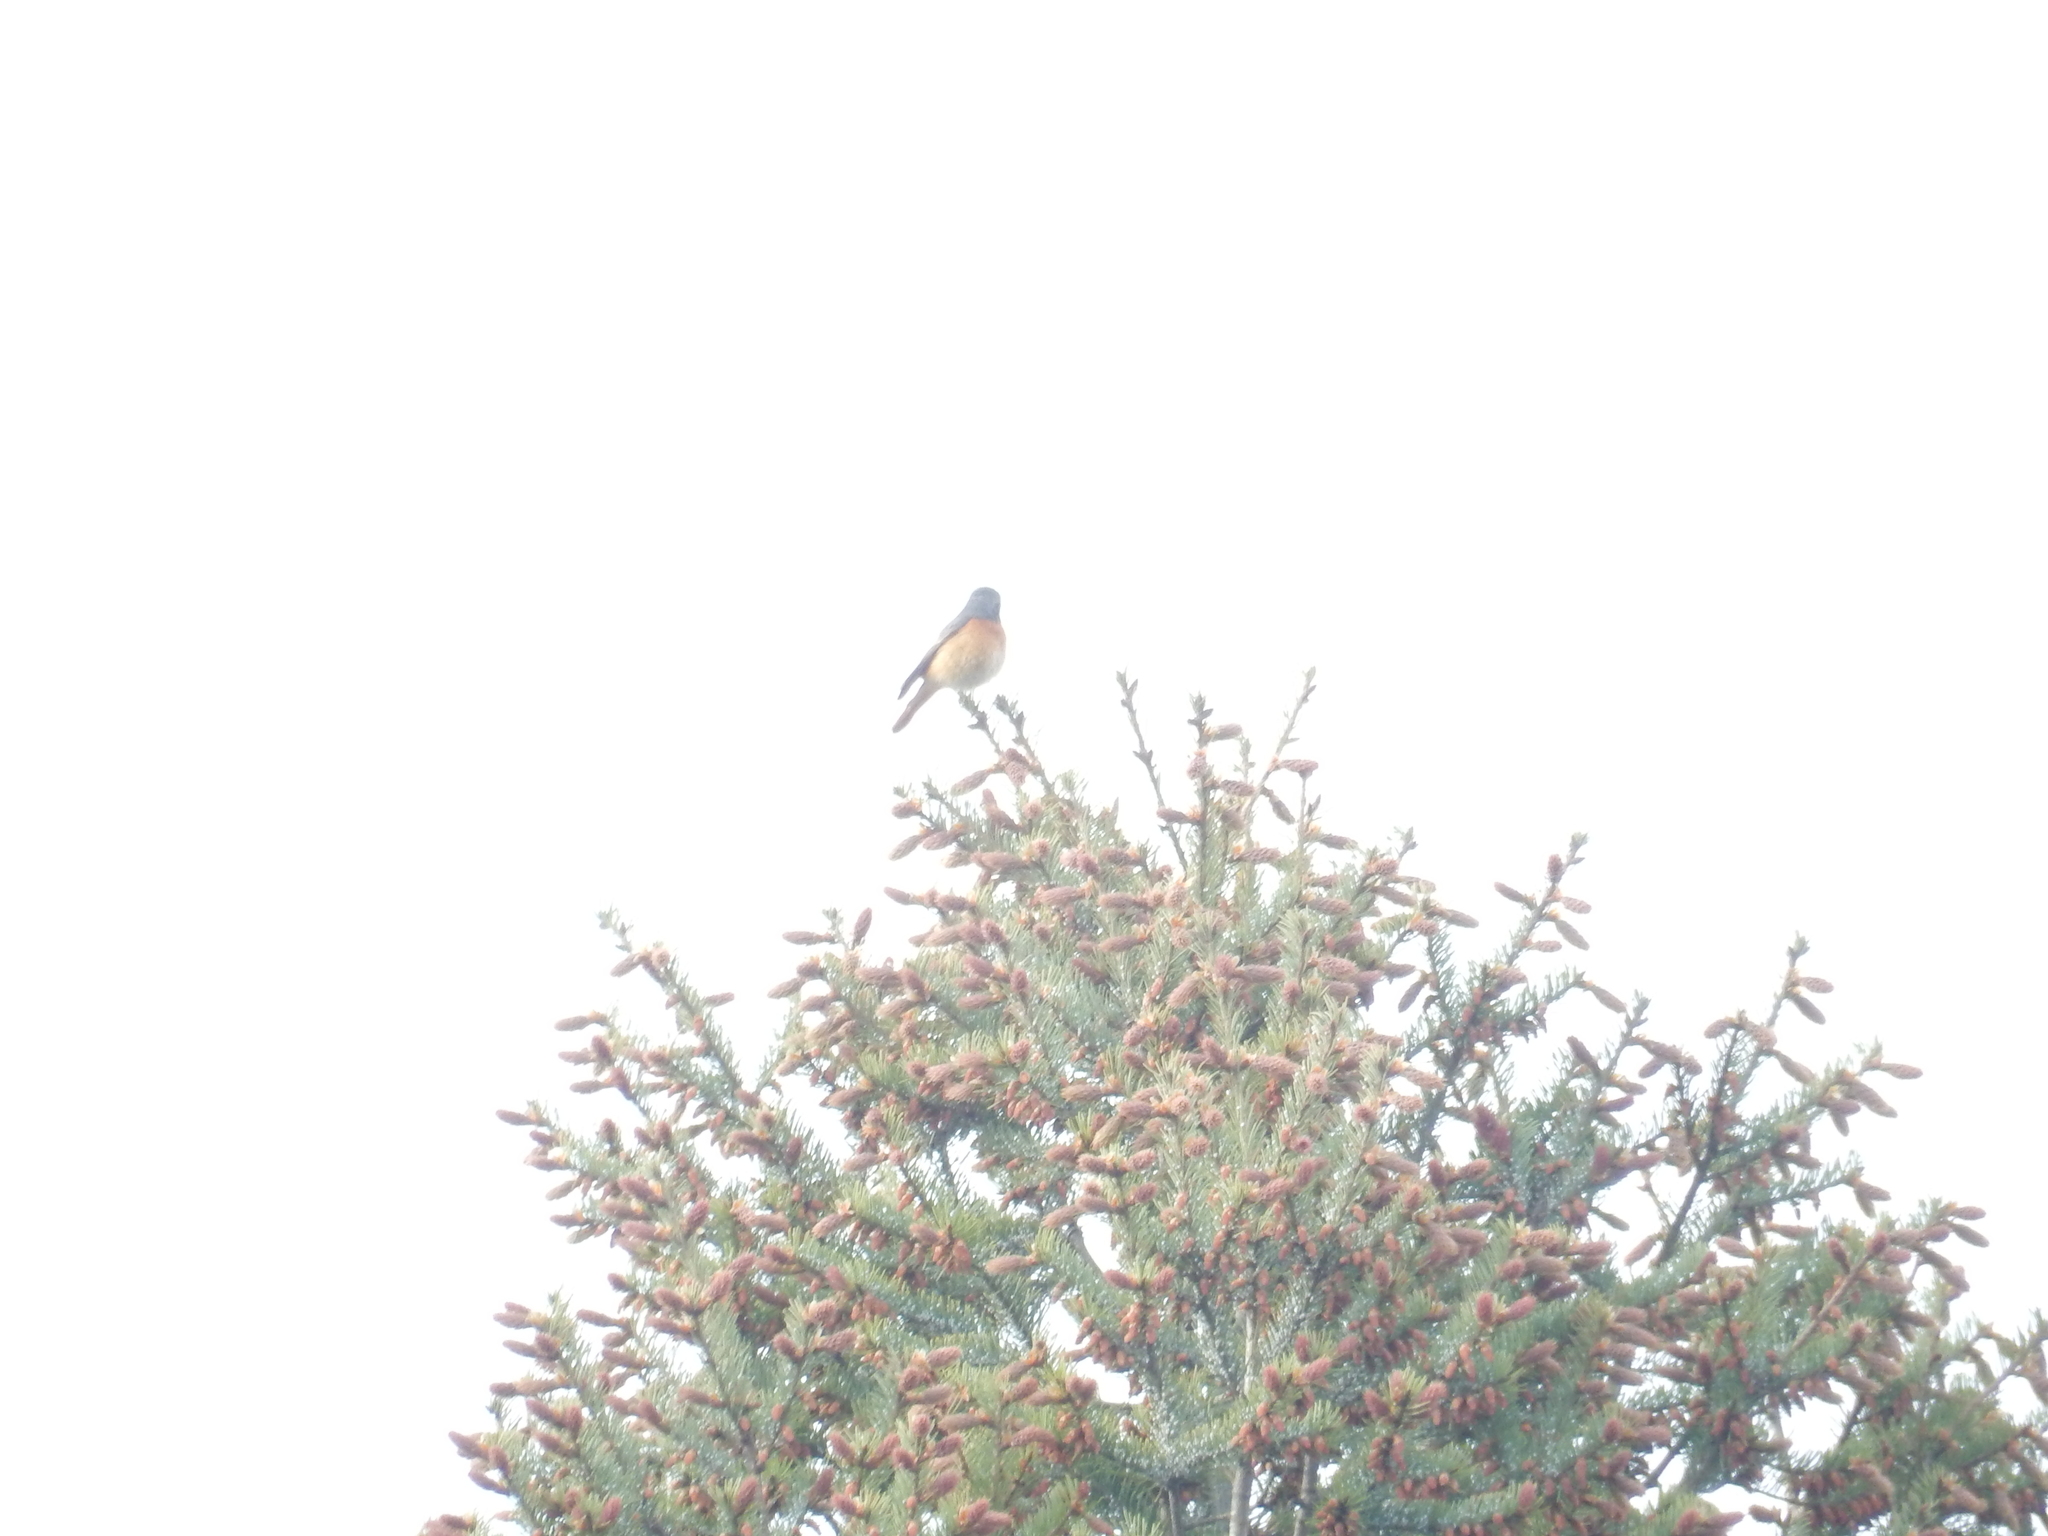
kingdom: Animalia
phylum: Chordata
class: Aves
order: Passeriformes
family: Muscicapidae
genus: Phoenicurus
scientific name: Phoenicurus phoenicurus
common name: Common redstart
